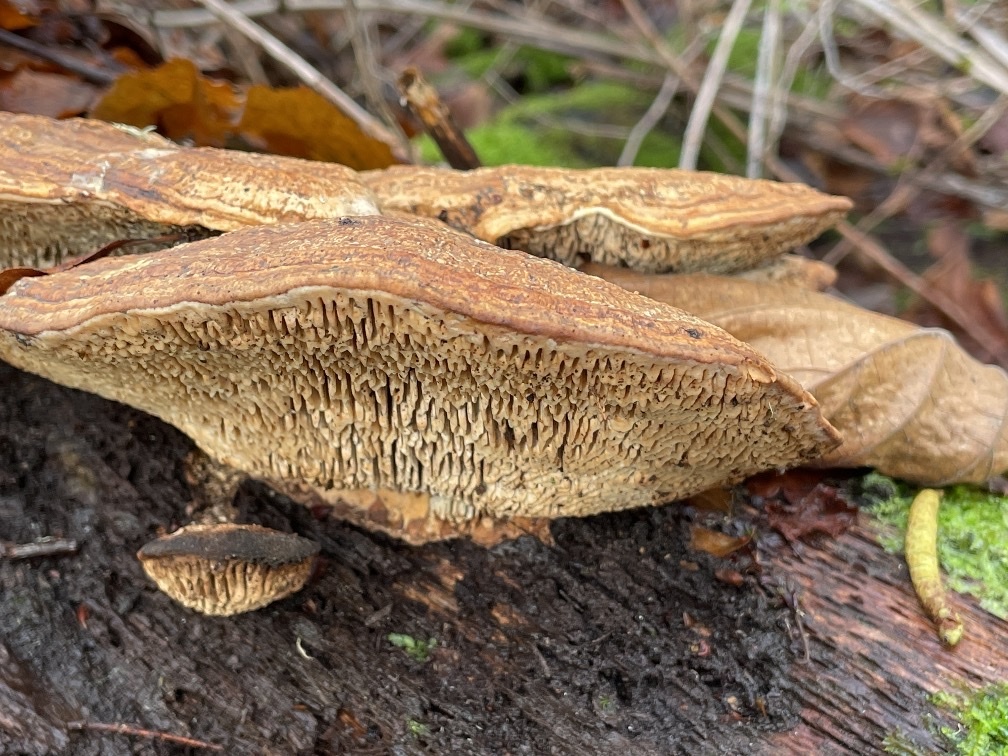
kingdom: Fungi
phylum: Basidiomycota
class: Agaricomycetes
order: Polyporales
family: Fomitopsidaceae
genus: Fomitopsis
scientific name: Fomitopsis
